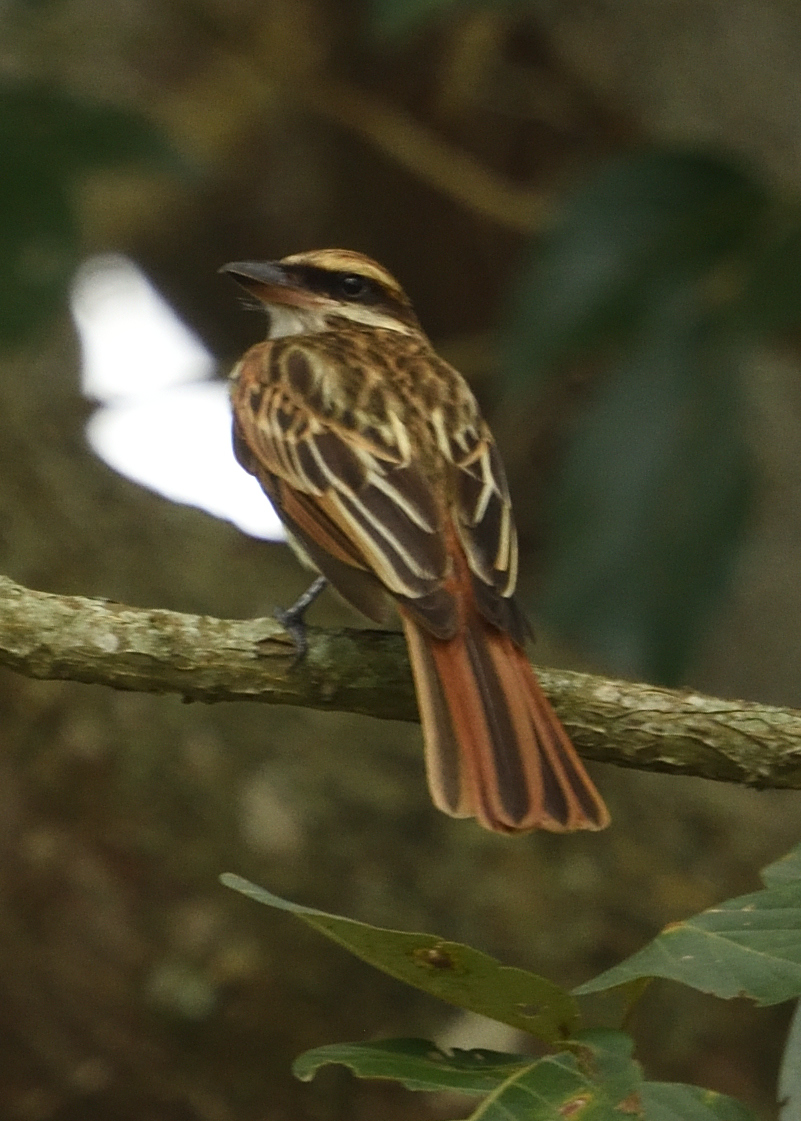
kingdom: Animalia
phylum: Chordata
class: Aves
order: Passeriformes
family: Tyrannidae
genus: Myiodynastes
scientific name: Myiodynastes maculatus
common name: Streaked flycatcher
